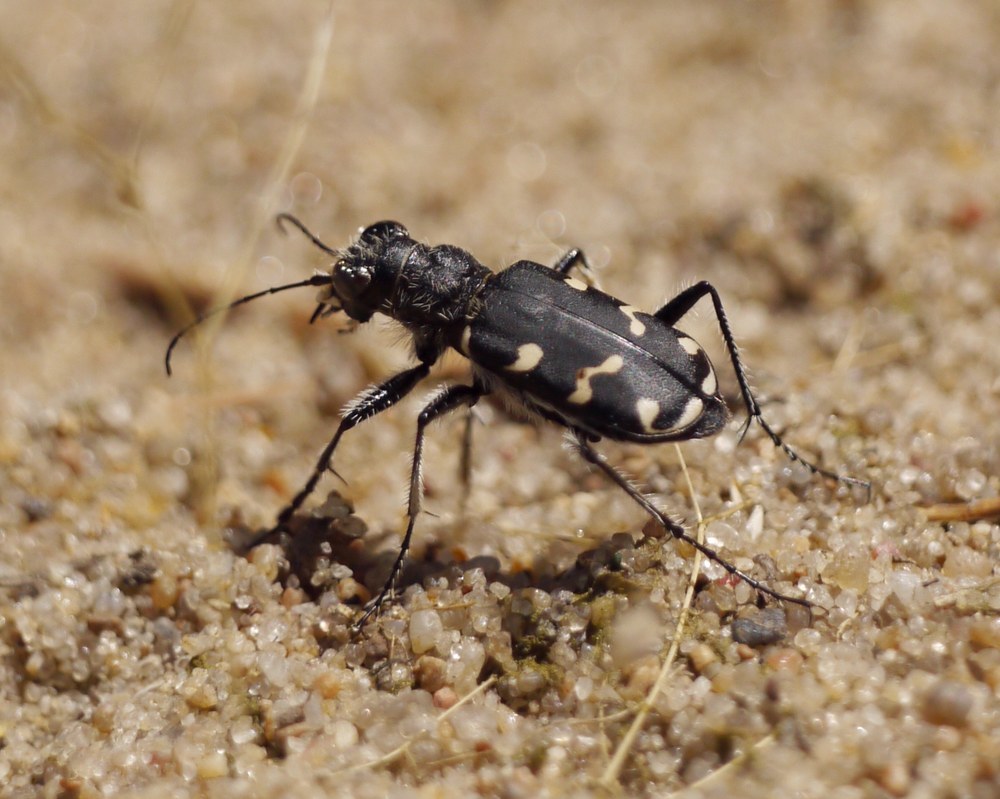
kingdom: Animalia
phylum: Arthropoda
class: Insecta
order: Coleoptera
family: Carabidae
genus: Cicindela
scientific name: Cicindela soluta
